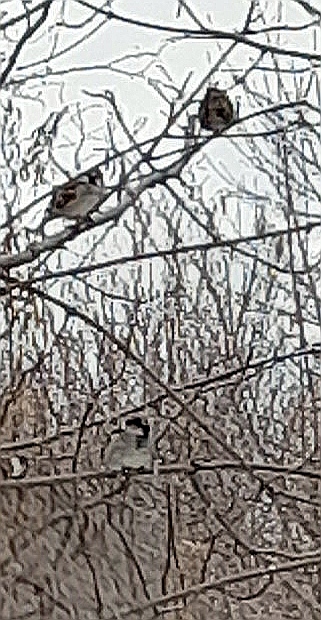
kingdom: Animalia
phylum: Chordata
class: Aves
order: Passeriformes
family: Passeridae
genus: Passer
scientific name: Passer domesticus
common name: House sparrow
